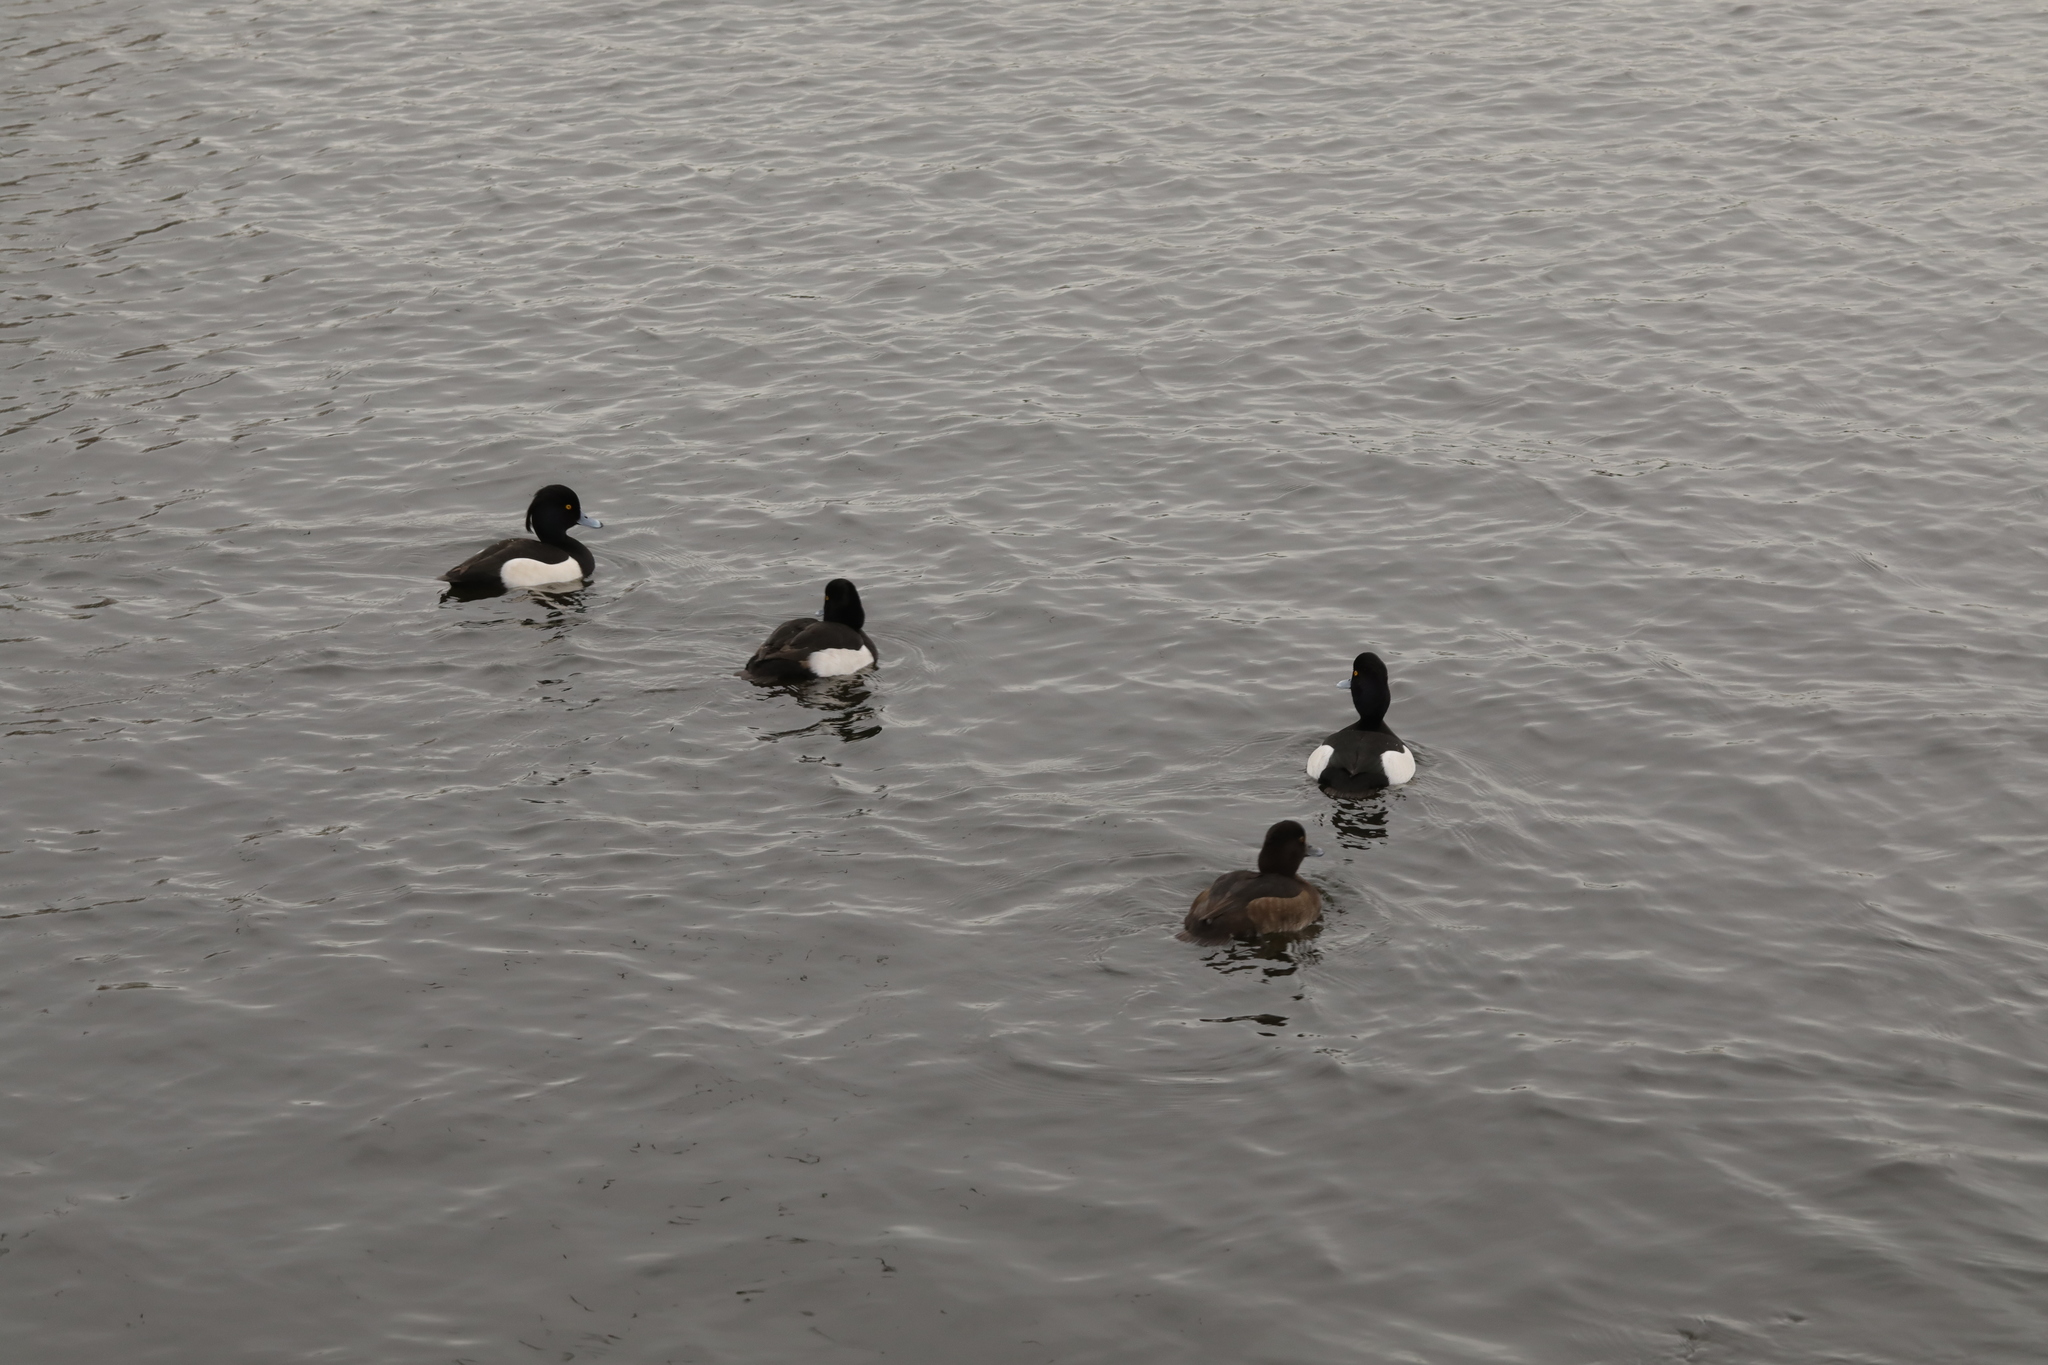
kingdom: Animalia
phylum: Chordata
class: Aves
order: Anseriformes
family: Anatidae
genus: Aythya
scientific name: Aythya fuligula
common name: Tufted duck
